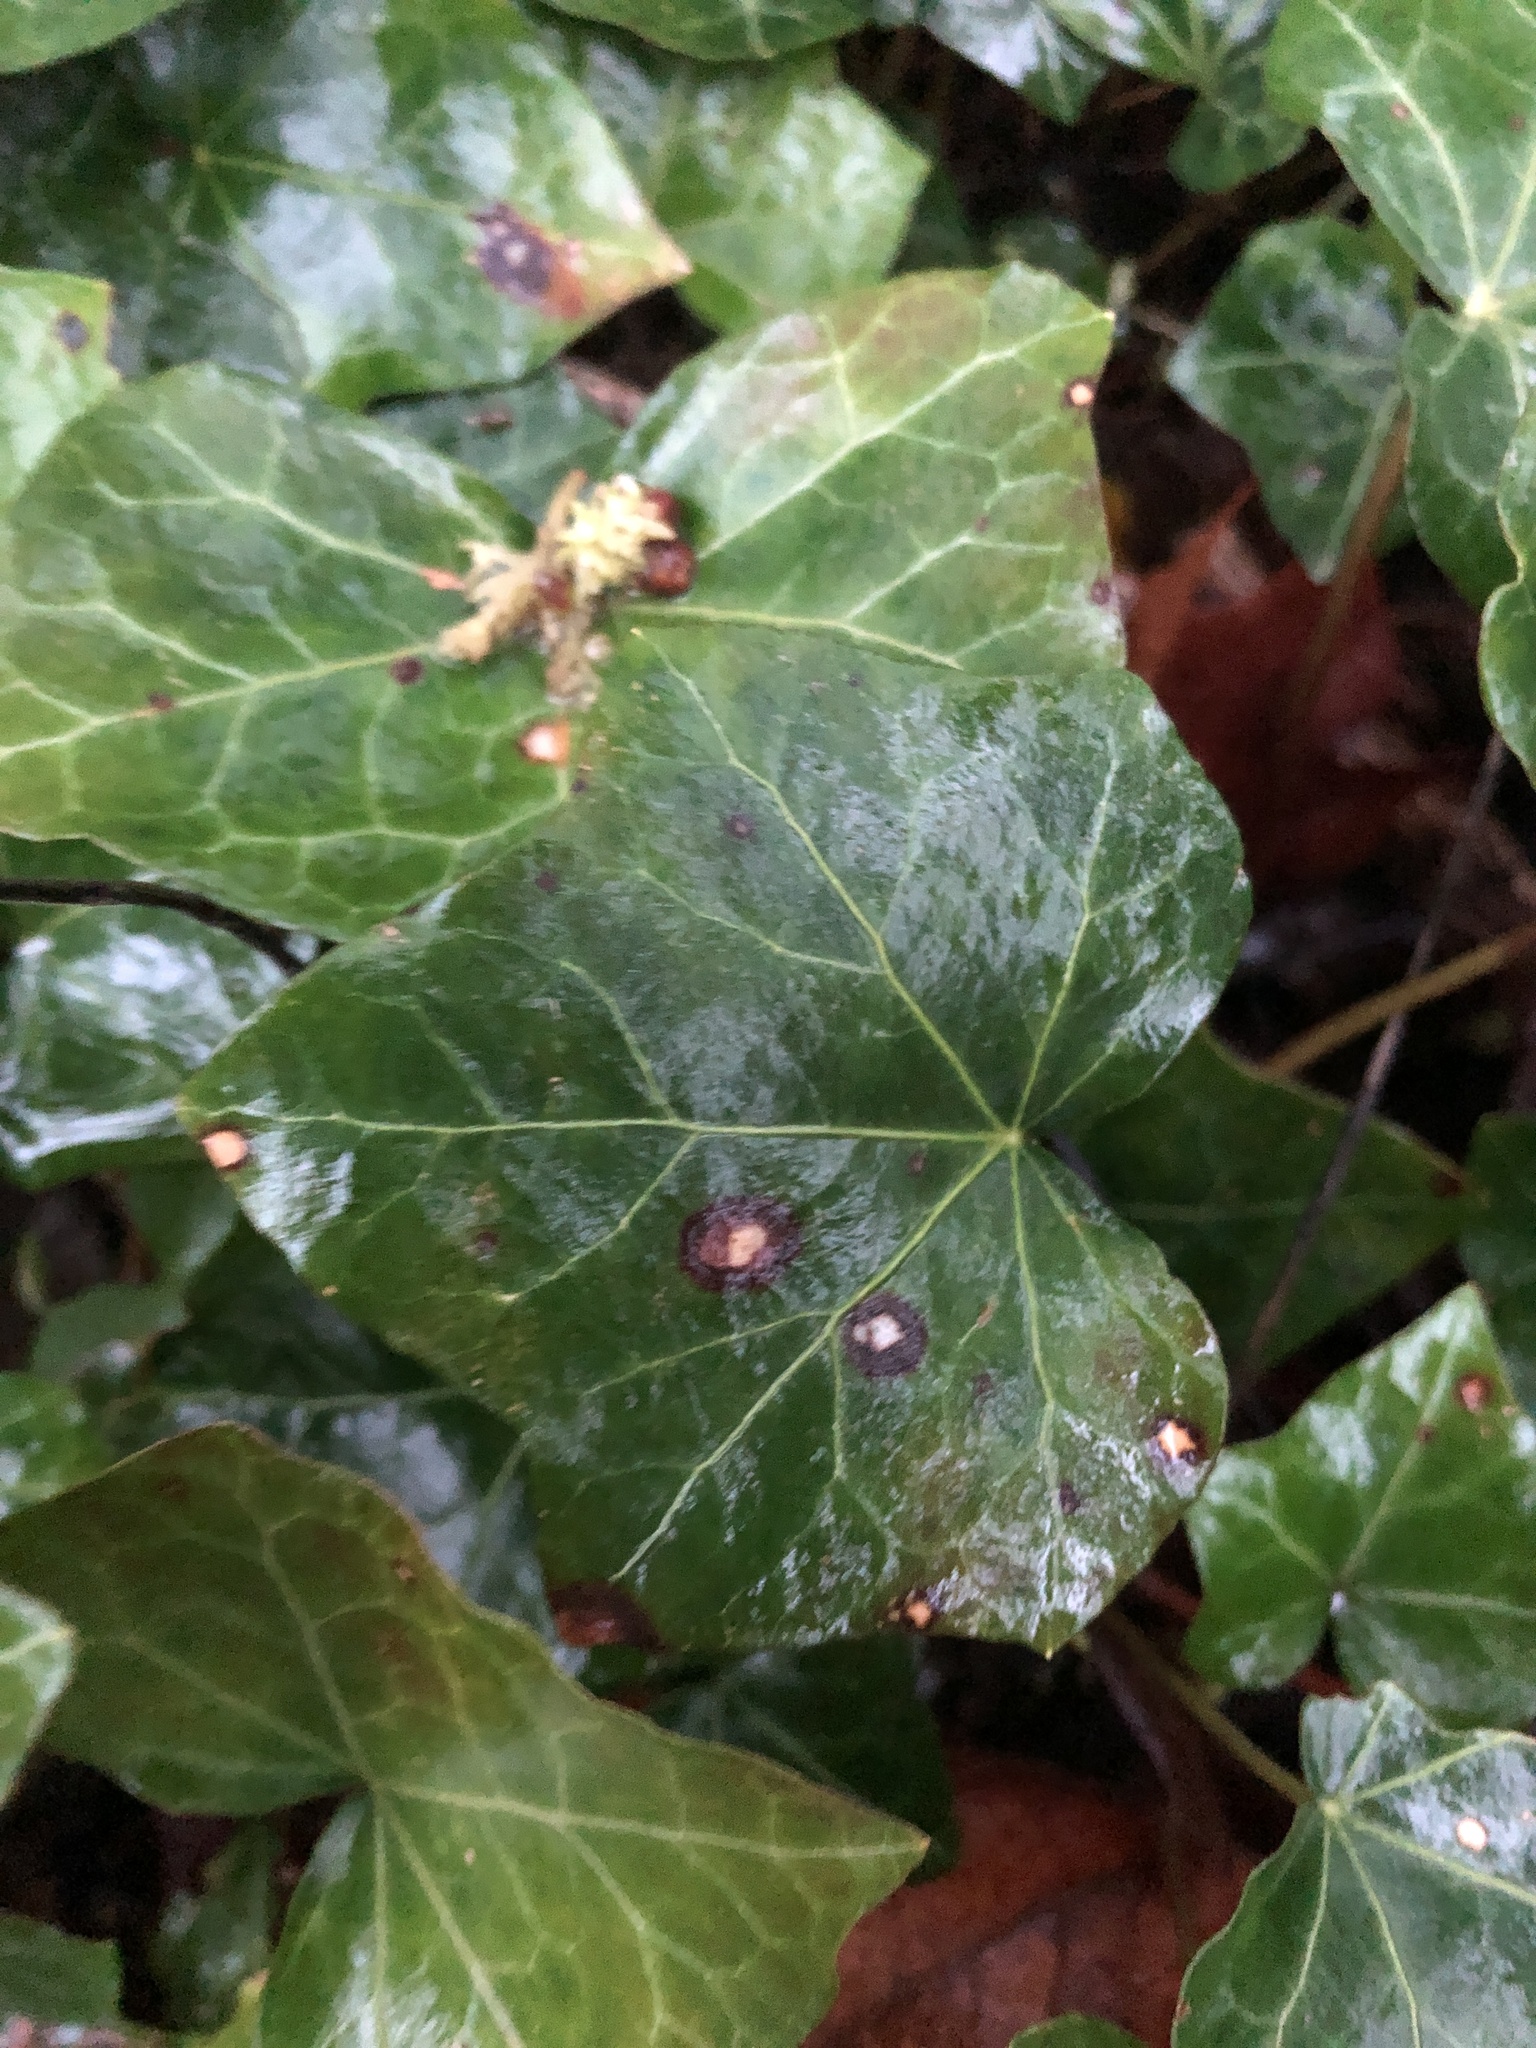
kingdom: Plantae
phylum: Tracheophyta
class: Magnoliopsida
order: Apiales
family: Araliaceae
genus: Hedera
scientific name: Hedera helix
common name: Ivy
